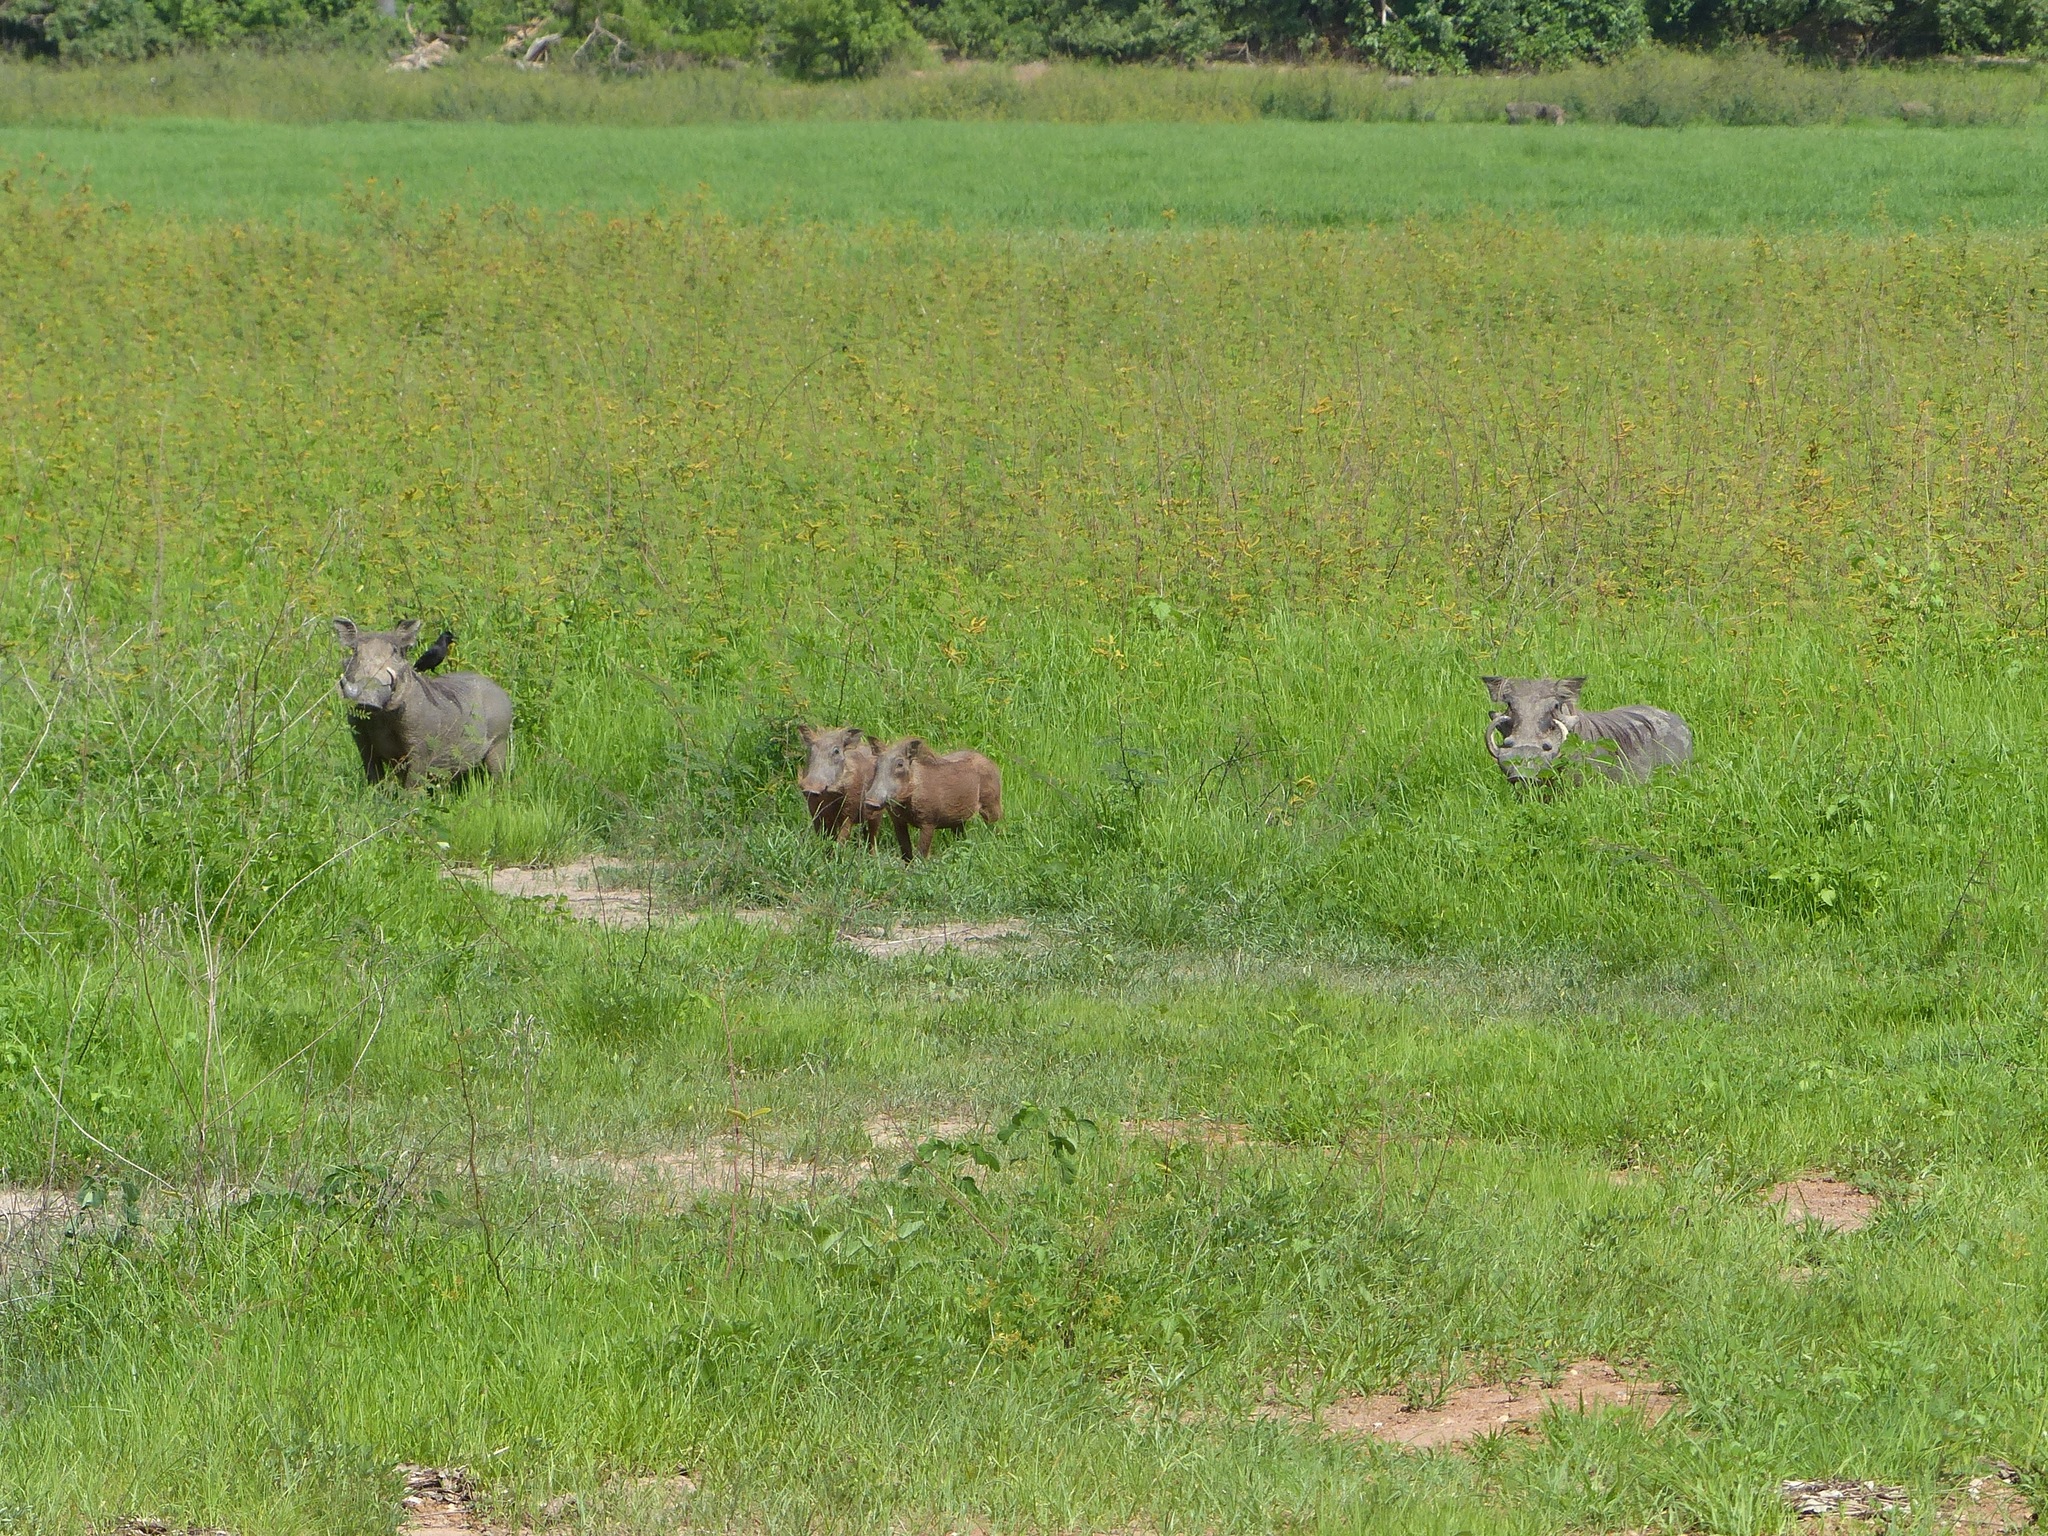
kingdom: Animalia
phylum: Chordata
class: Mammalia
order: Artiodactyla
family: Suidae
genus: Phacochoerus
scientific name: Phacochoerus africanus
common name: Common warthog
